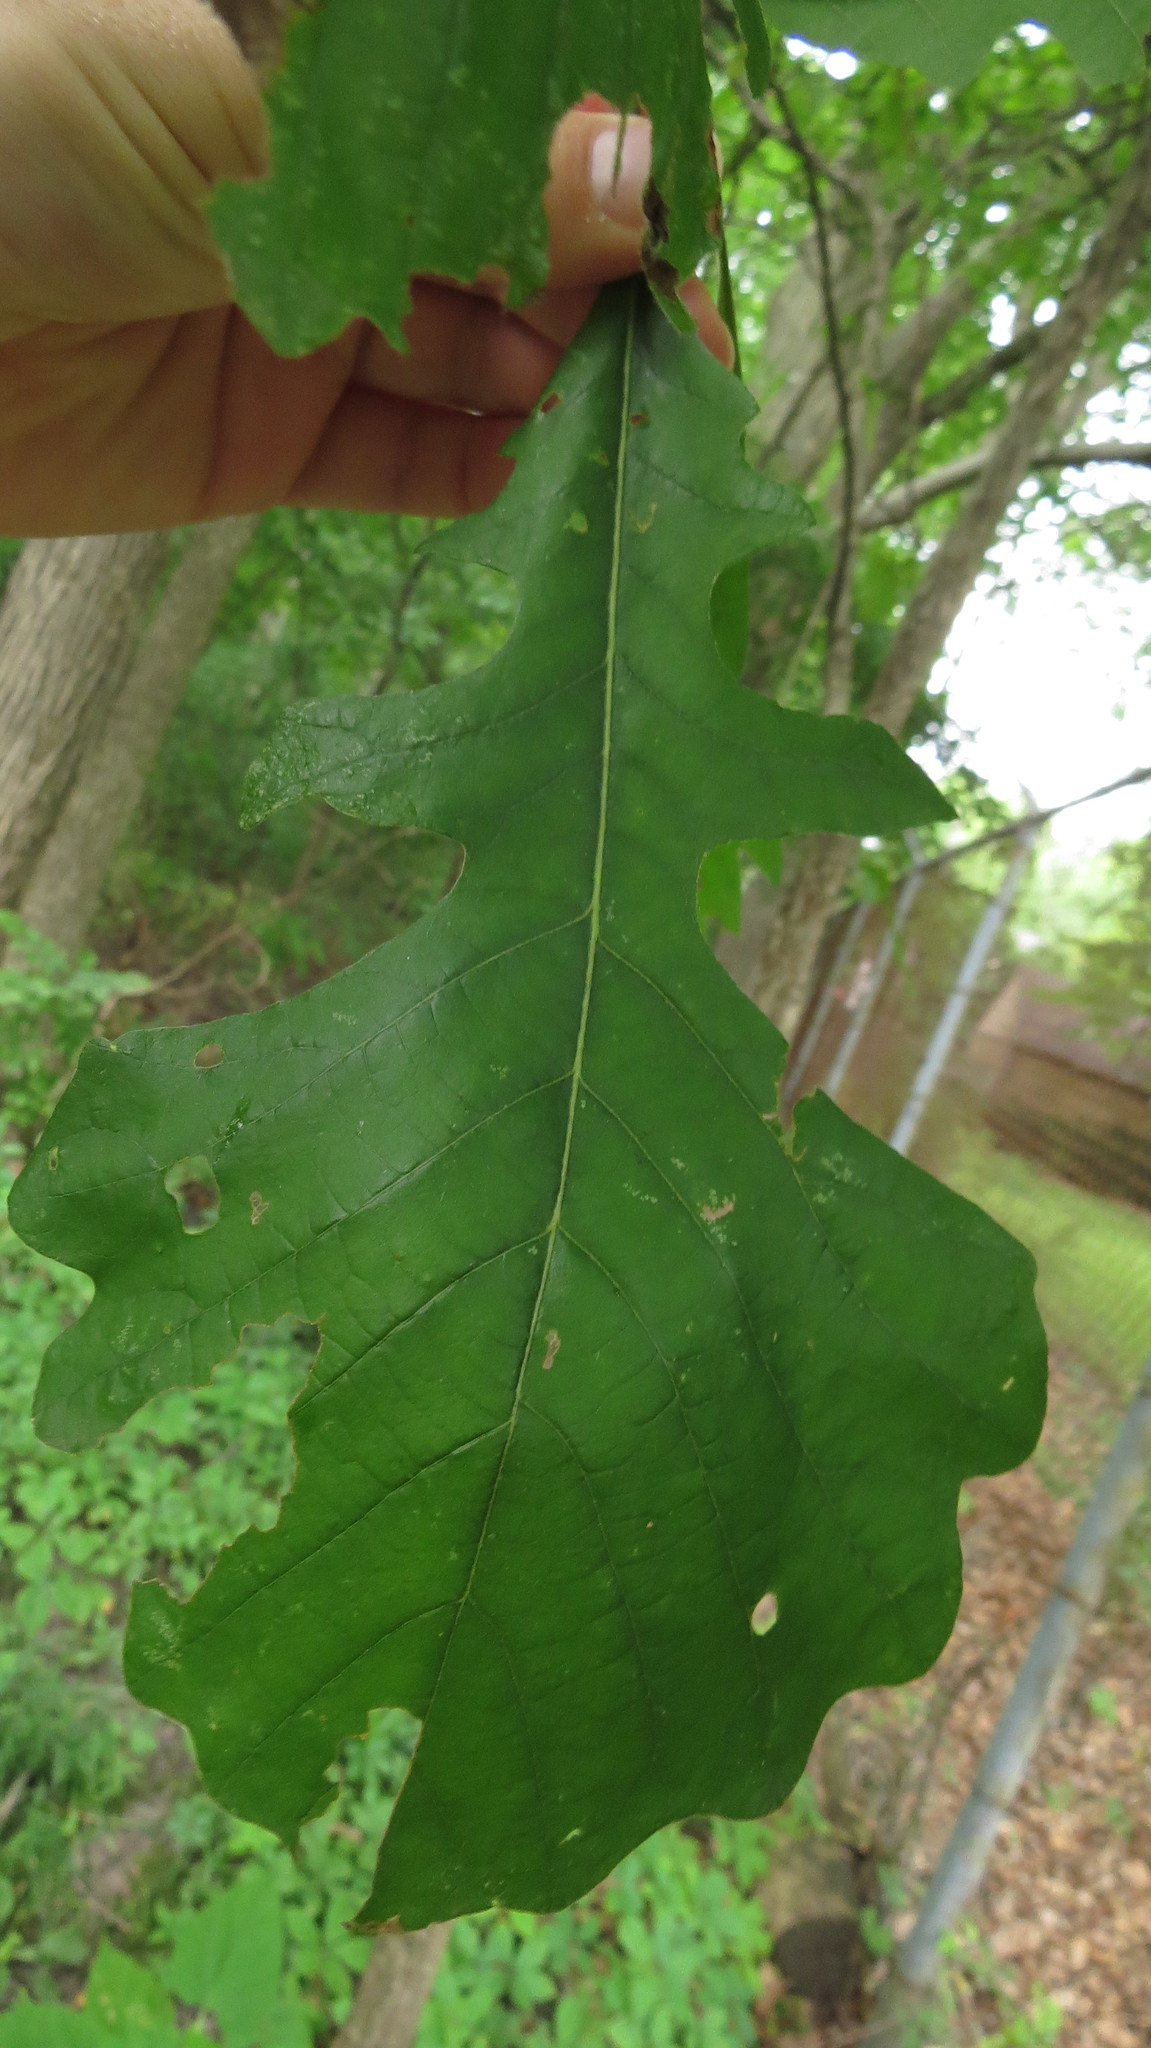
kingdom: Plantae
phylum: Tracheophyta
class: Magnoliopsida
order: Fagales
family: Fagaceae
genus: Quercus
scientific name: Quercus macrocarpa
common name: Bur oak
